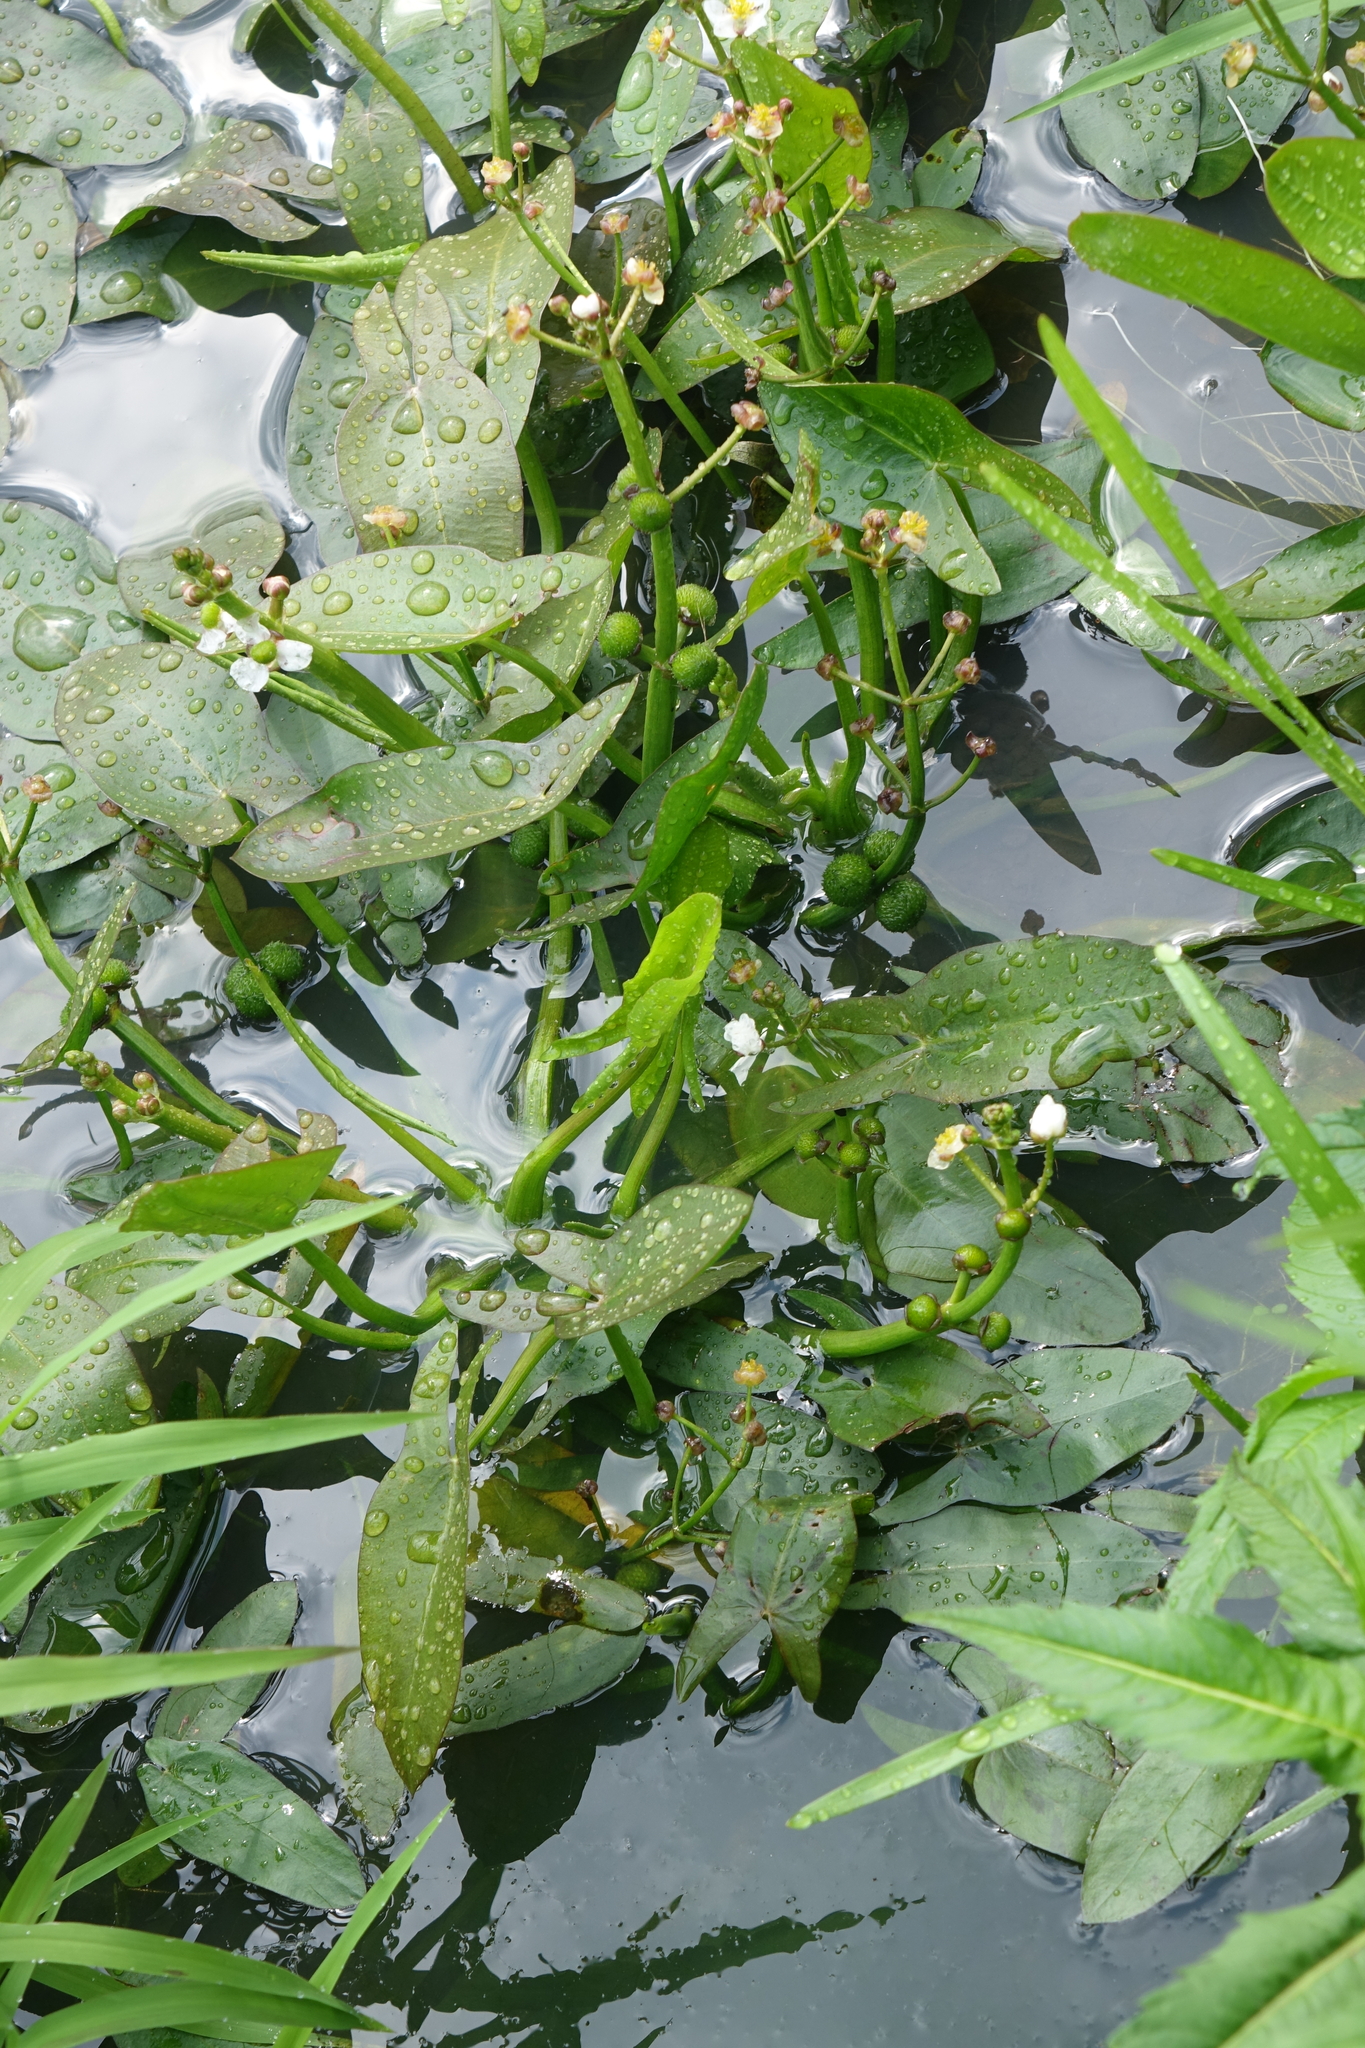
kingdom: Plantae
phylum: Tracheophyta
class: Liliopsida
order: Alismatales
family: Alismataceae
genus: Sagittaria
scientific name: Sagittaria natans
